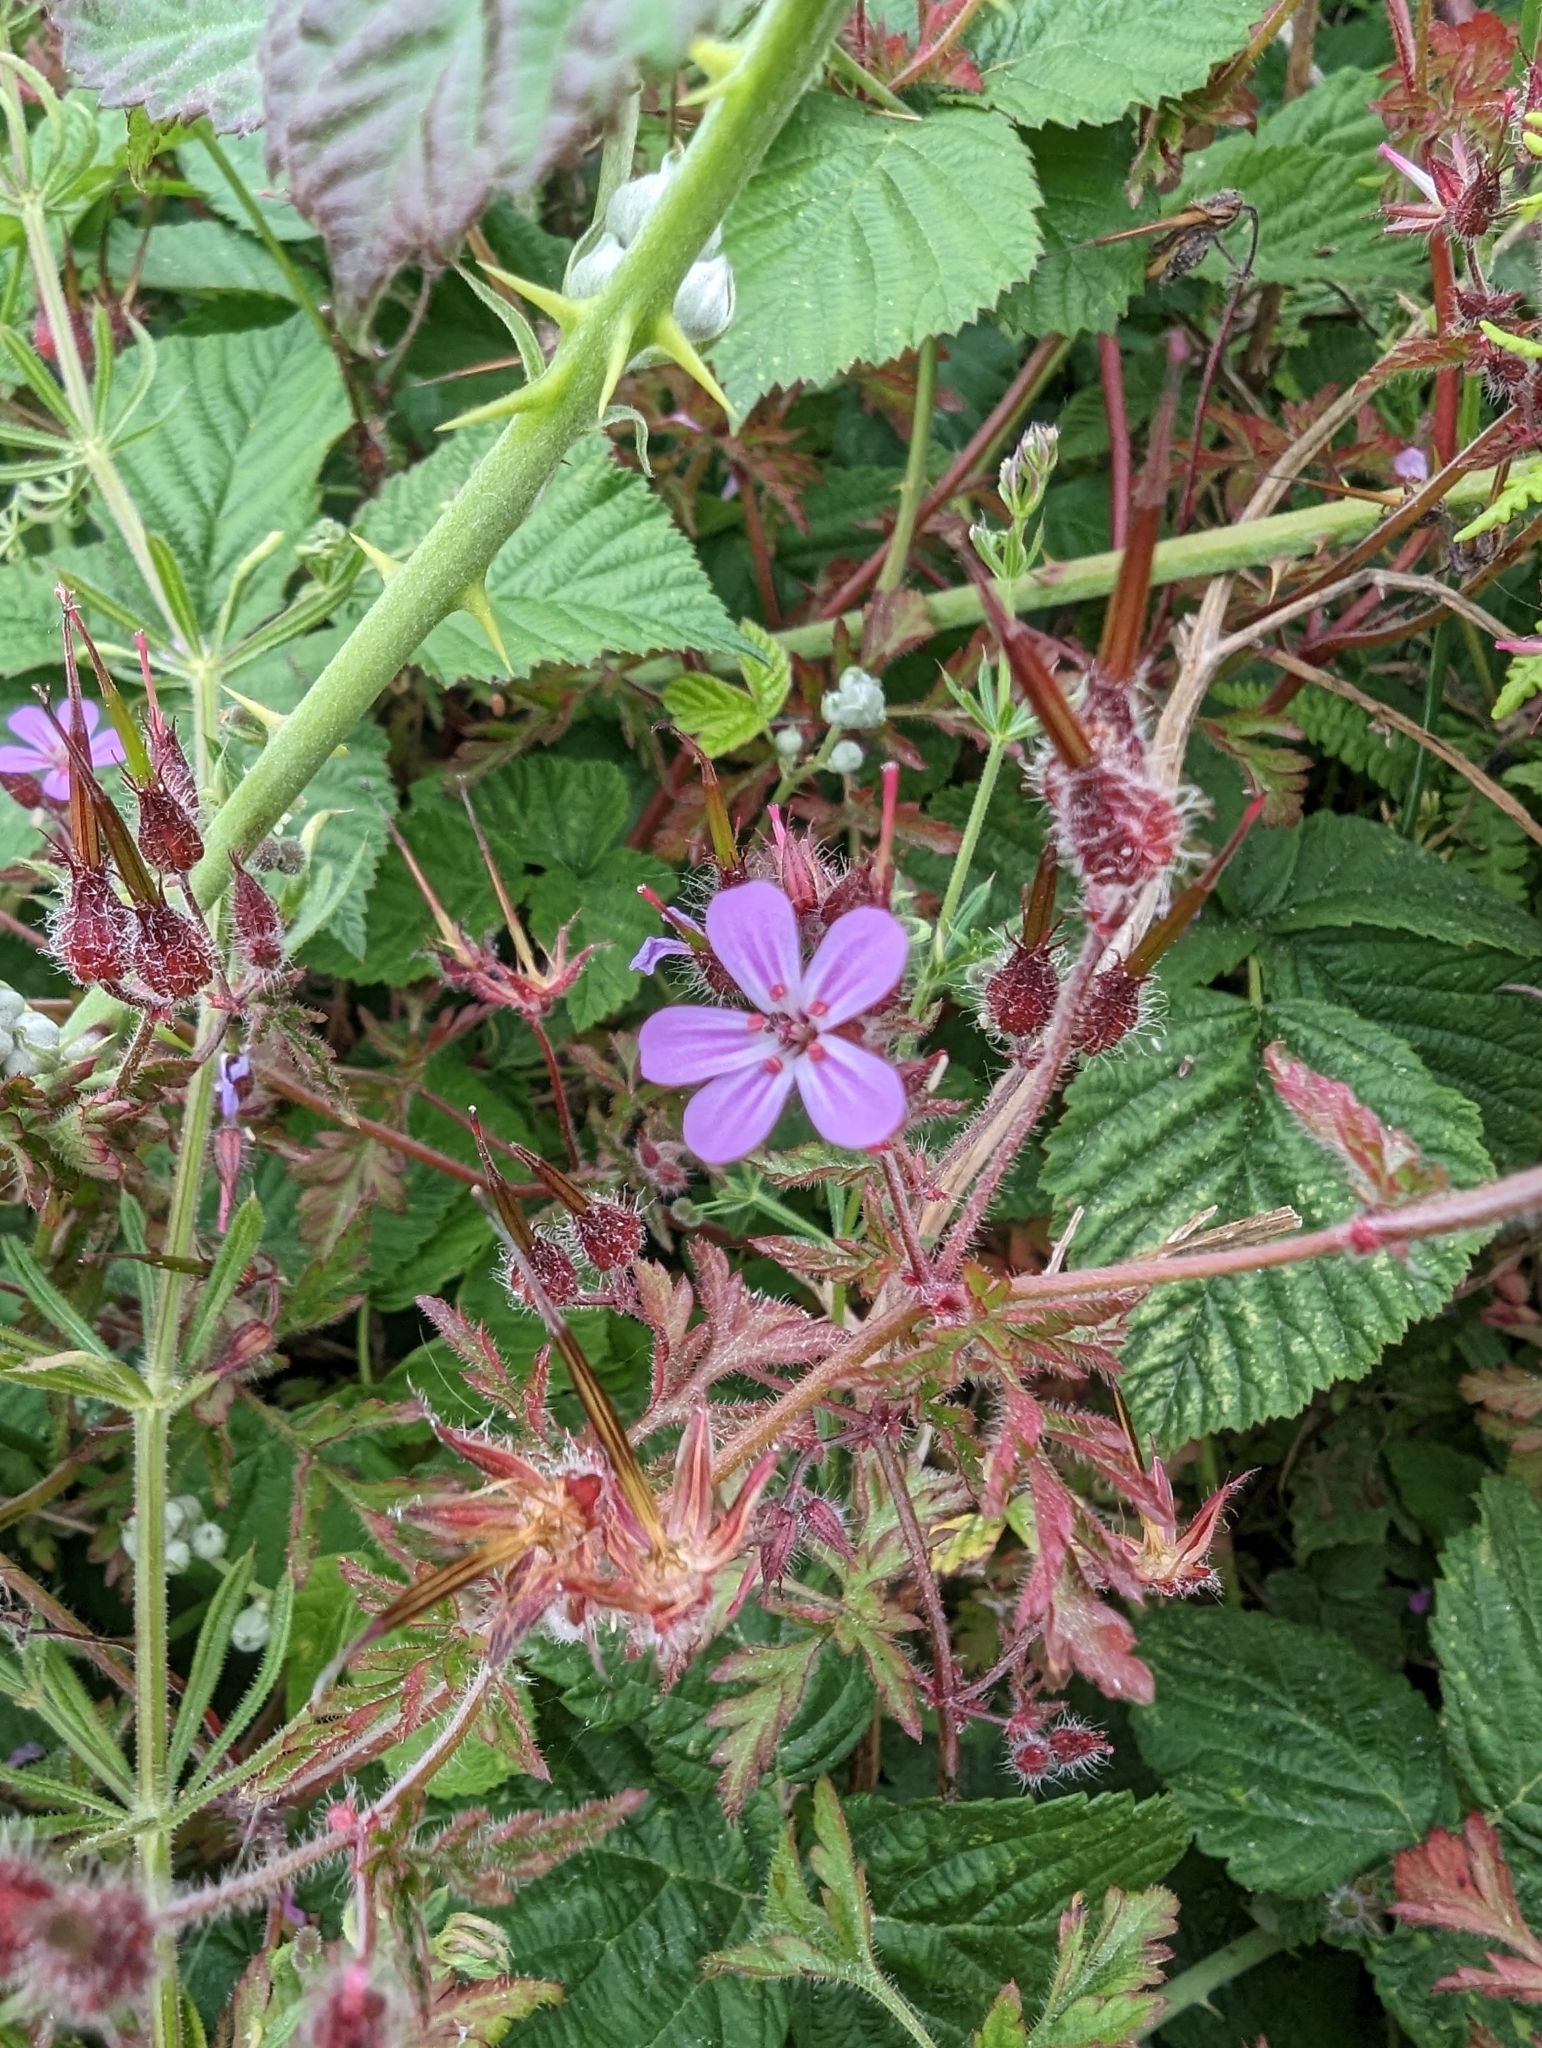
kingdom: Plantae
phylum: Tracheophyta
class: Magnoliopsida
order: Geraniales
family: Geraniaceae
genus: Geranium
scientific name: Geranium robertianum
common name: Herb-robert
